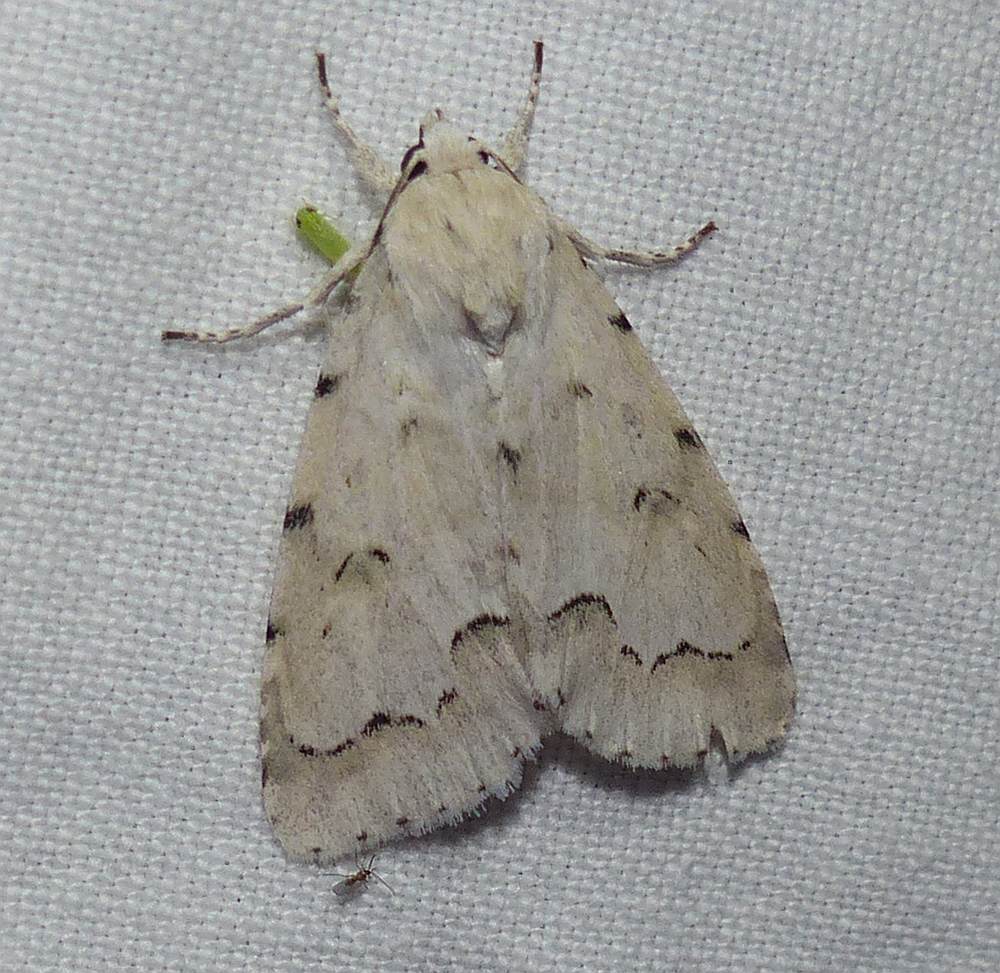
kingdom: Animalia
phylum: Arthropoda
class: Insecta
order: Lepidoptera
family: Noctuidae
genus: Acronicta
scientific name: Acronicta innotata
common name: Unmarked dagger
